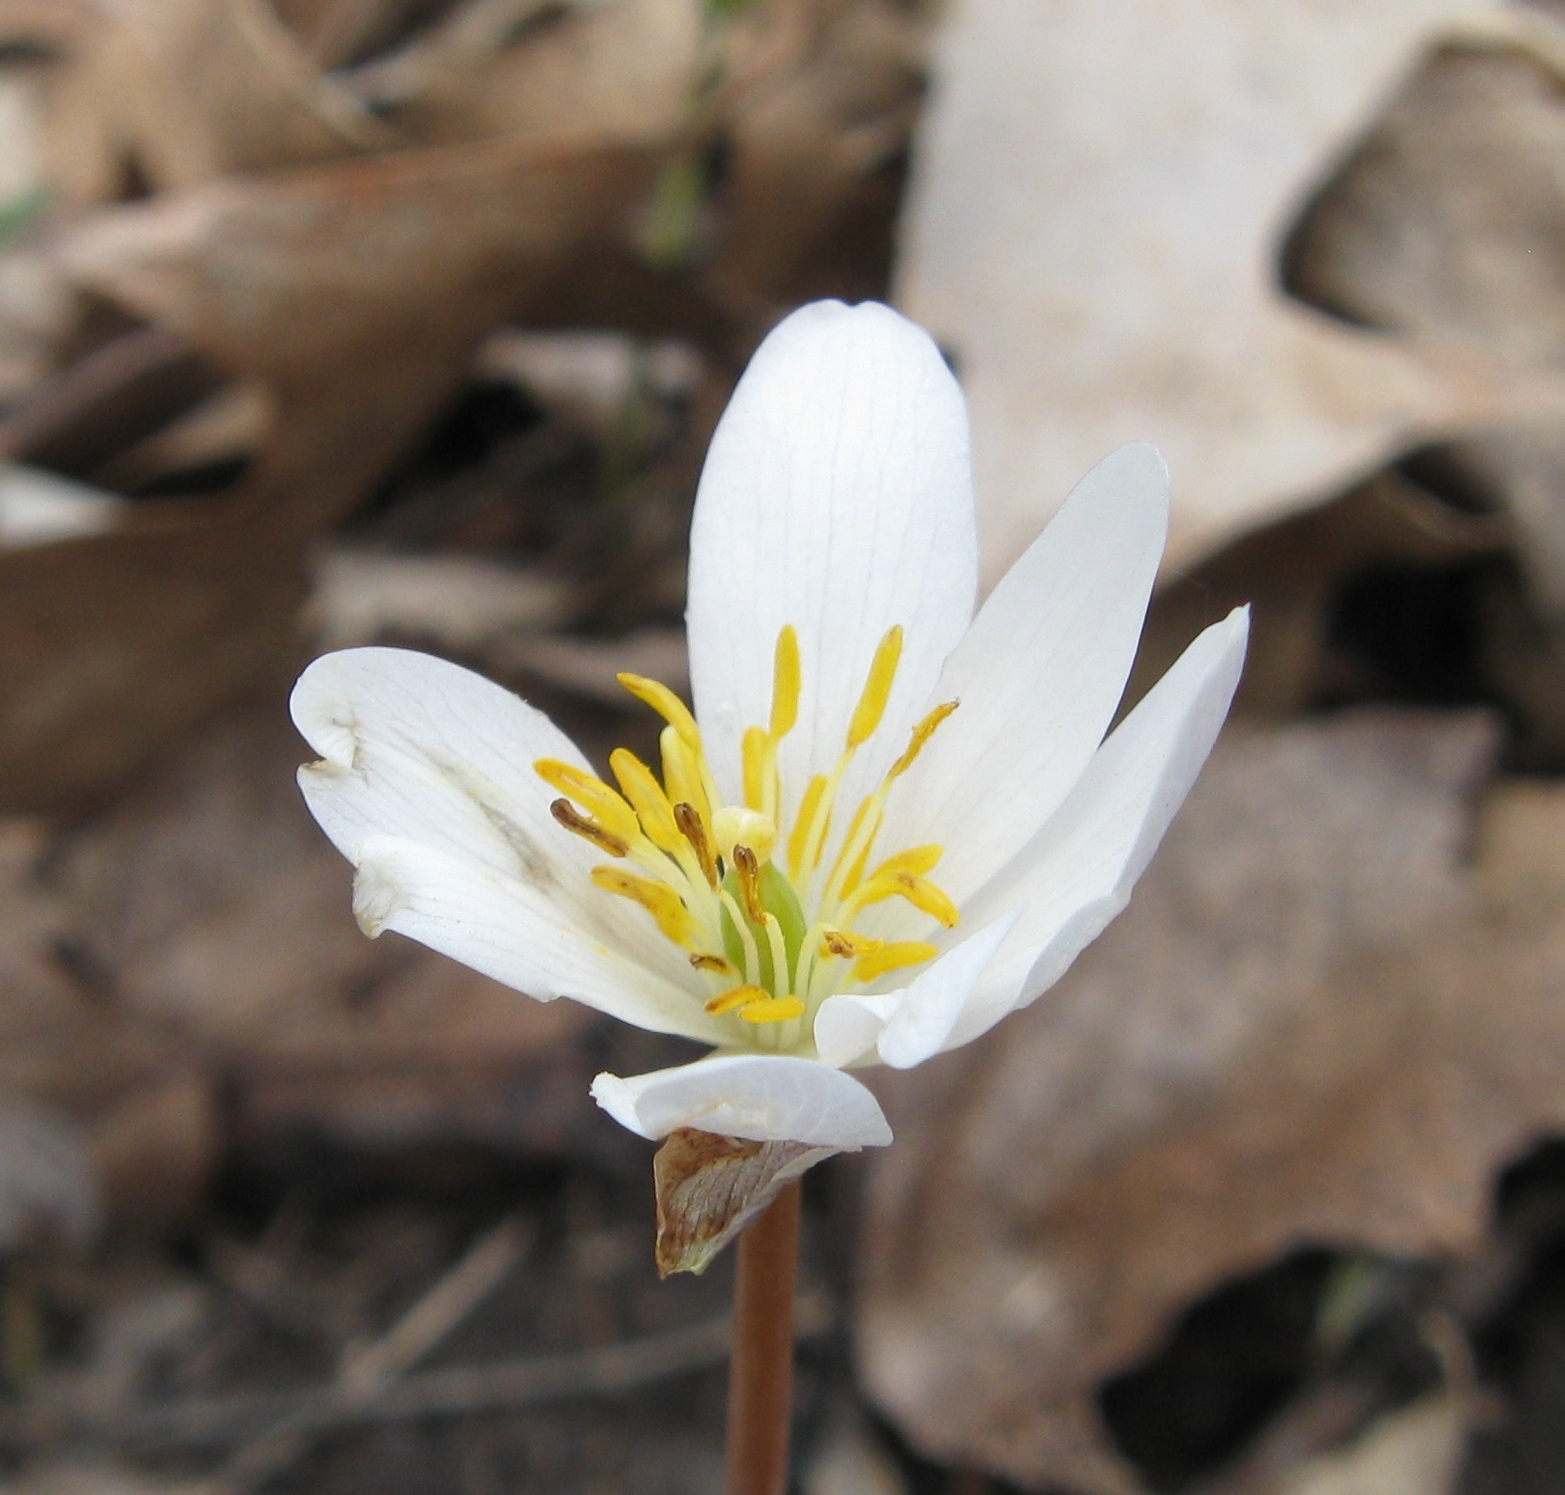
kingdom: Plantae
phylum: Tracheophyta
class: Magnoliopsida
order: Ranunculales
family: Papaveraceae
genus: Sanguinaria
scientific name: Sanguinaria canadensis
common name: Bloodroot
